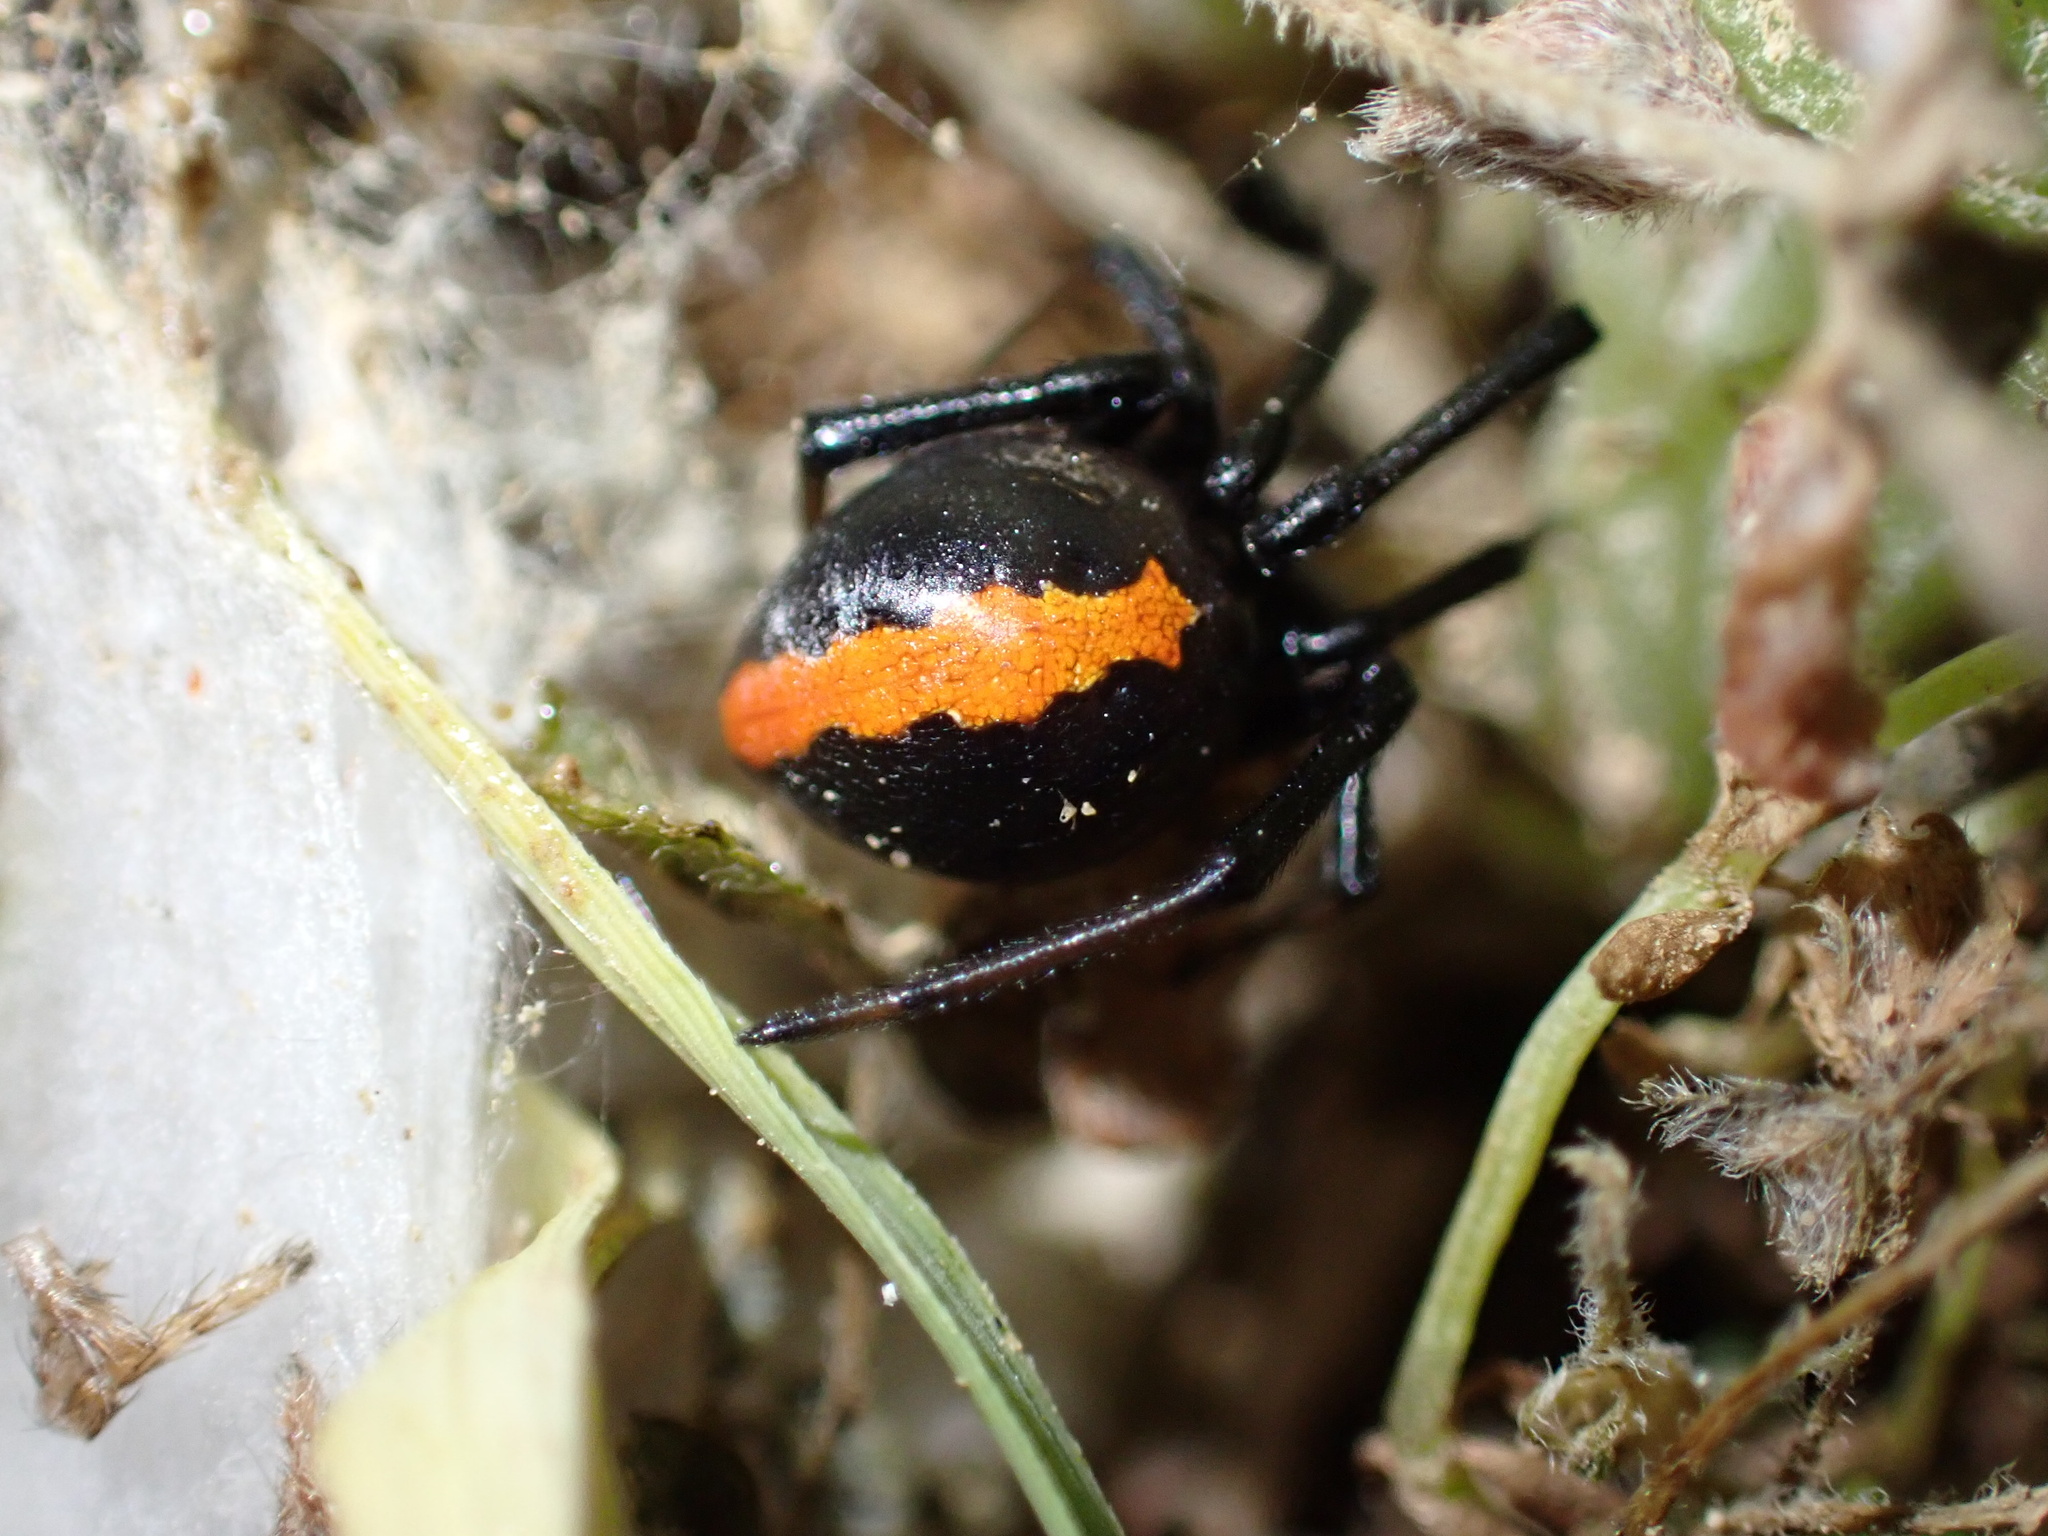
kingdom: Animalia
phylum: Arthropoda
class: Arachnida
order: Araneae
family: Theridiidae
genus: Latrodectus
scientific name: Latrodectus cinctus
